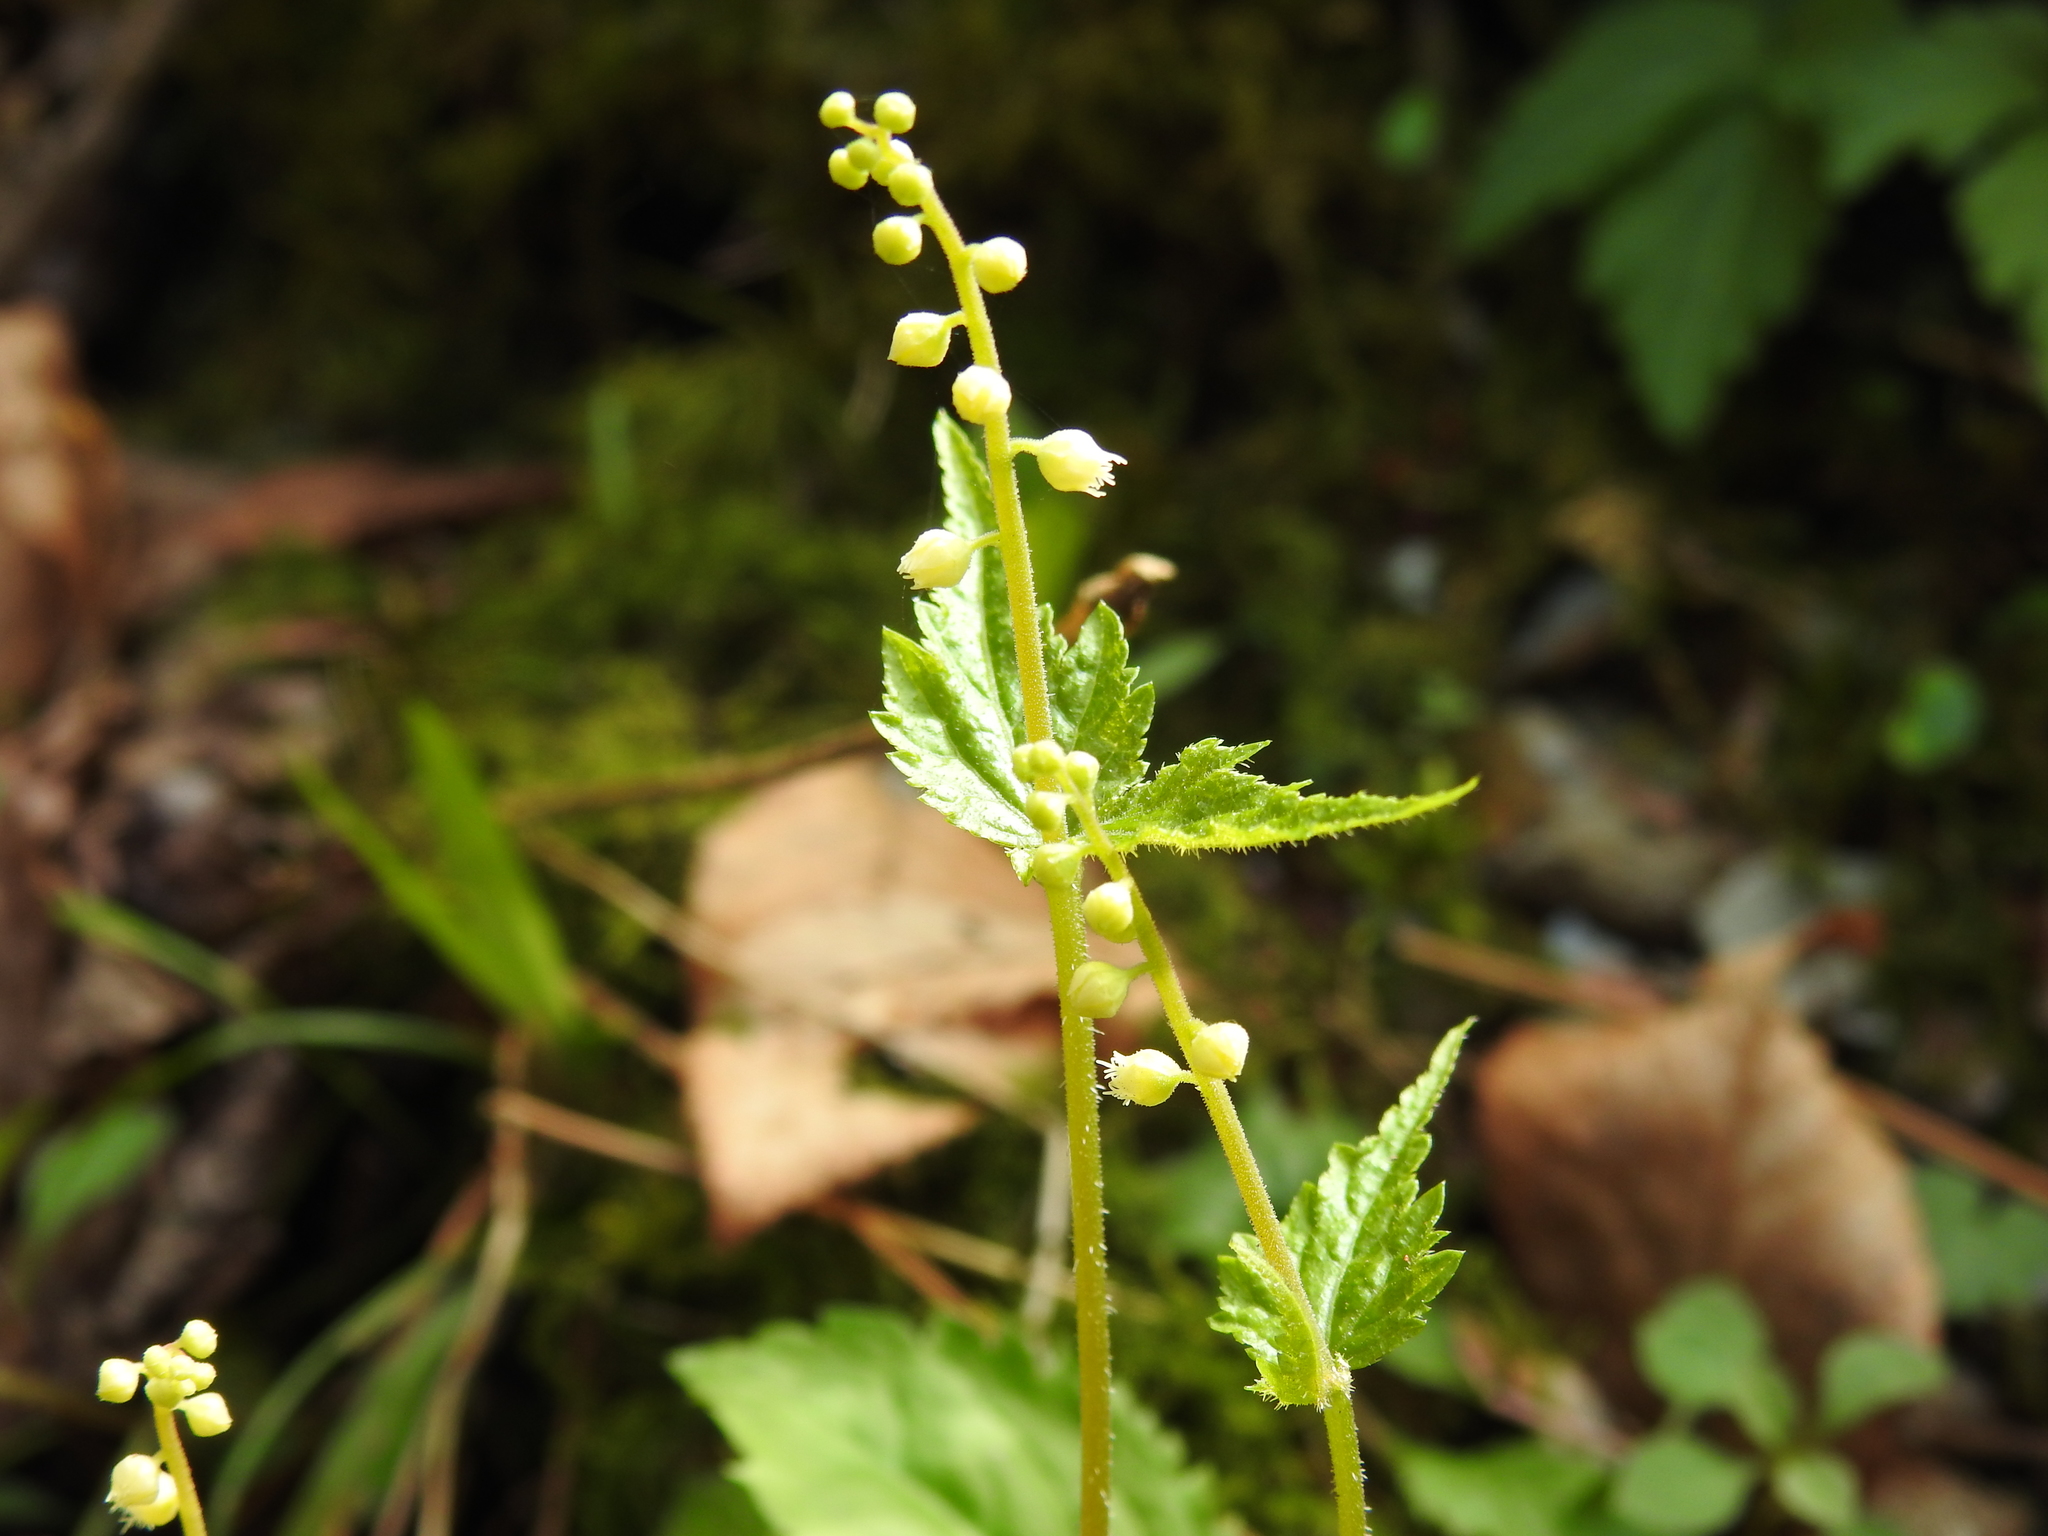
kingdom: Plantae
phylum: Tracheophyta
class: Magnoliopsida
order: Saxifragales
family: Saxifragaceae
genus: Mitella
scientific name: Mitella diphylla
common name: Coolwort
